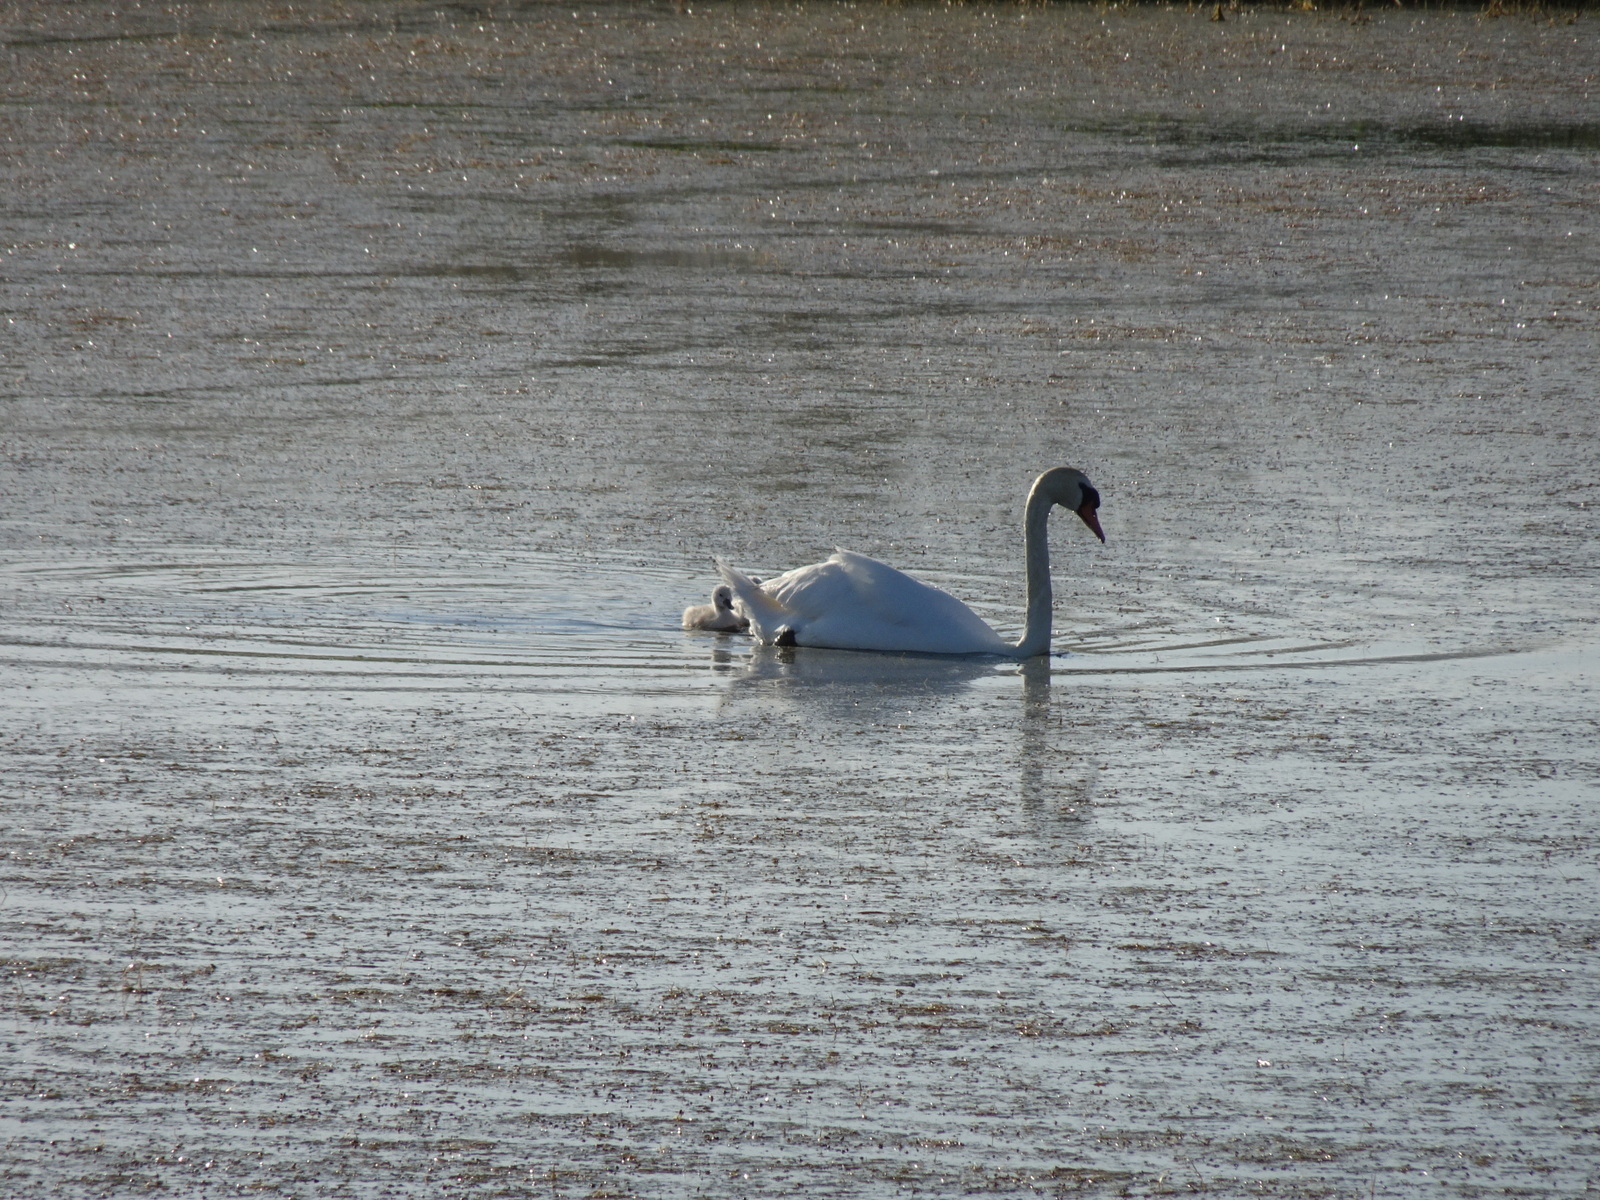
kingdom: Animalia
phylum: Chordata
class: Aves
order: Anseriformes
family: Anatidae
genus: Cygnus
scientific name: Cygnus olor
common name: Mute swan
